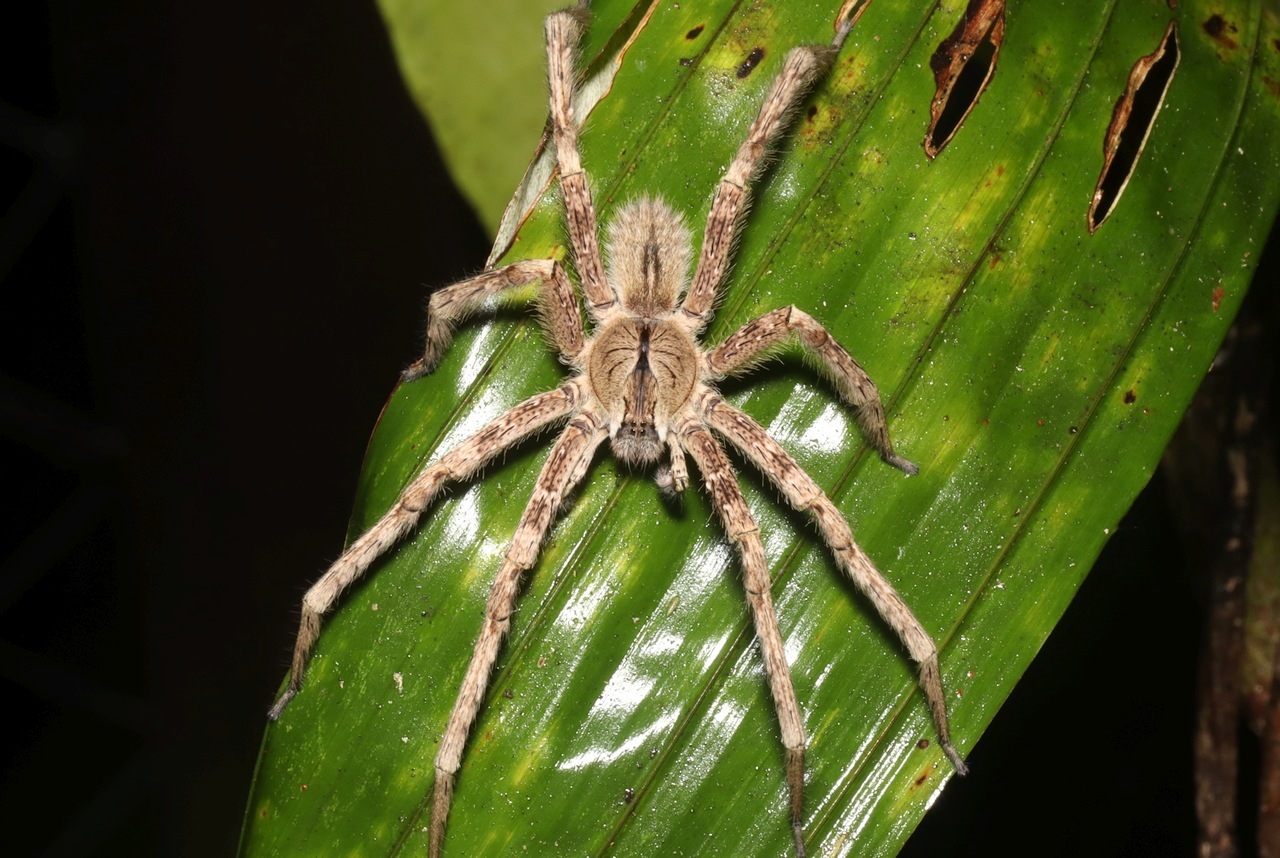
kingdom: Animalia
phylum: Arthropoda
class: Arachnida
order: Araneae
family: Ctenidae
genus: Phoneutria
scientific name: Phoneutria boliviensis
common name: Wandering spiders
